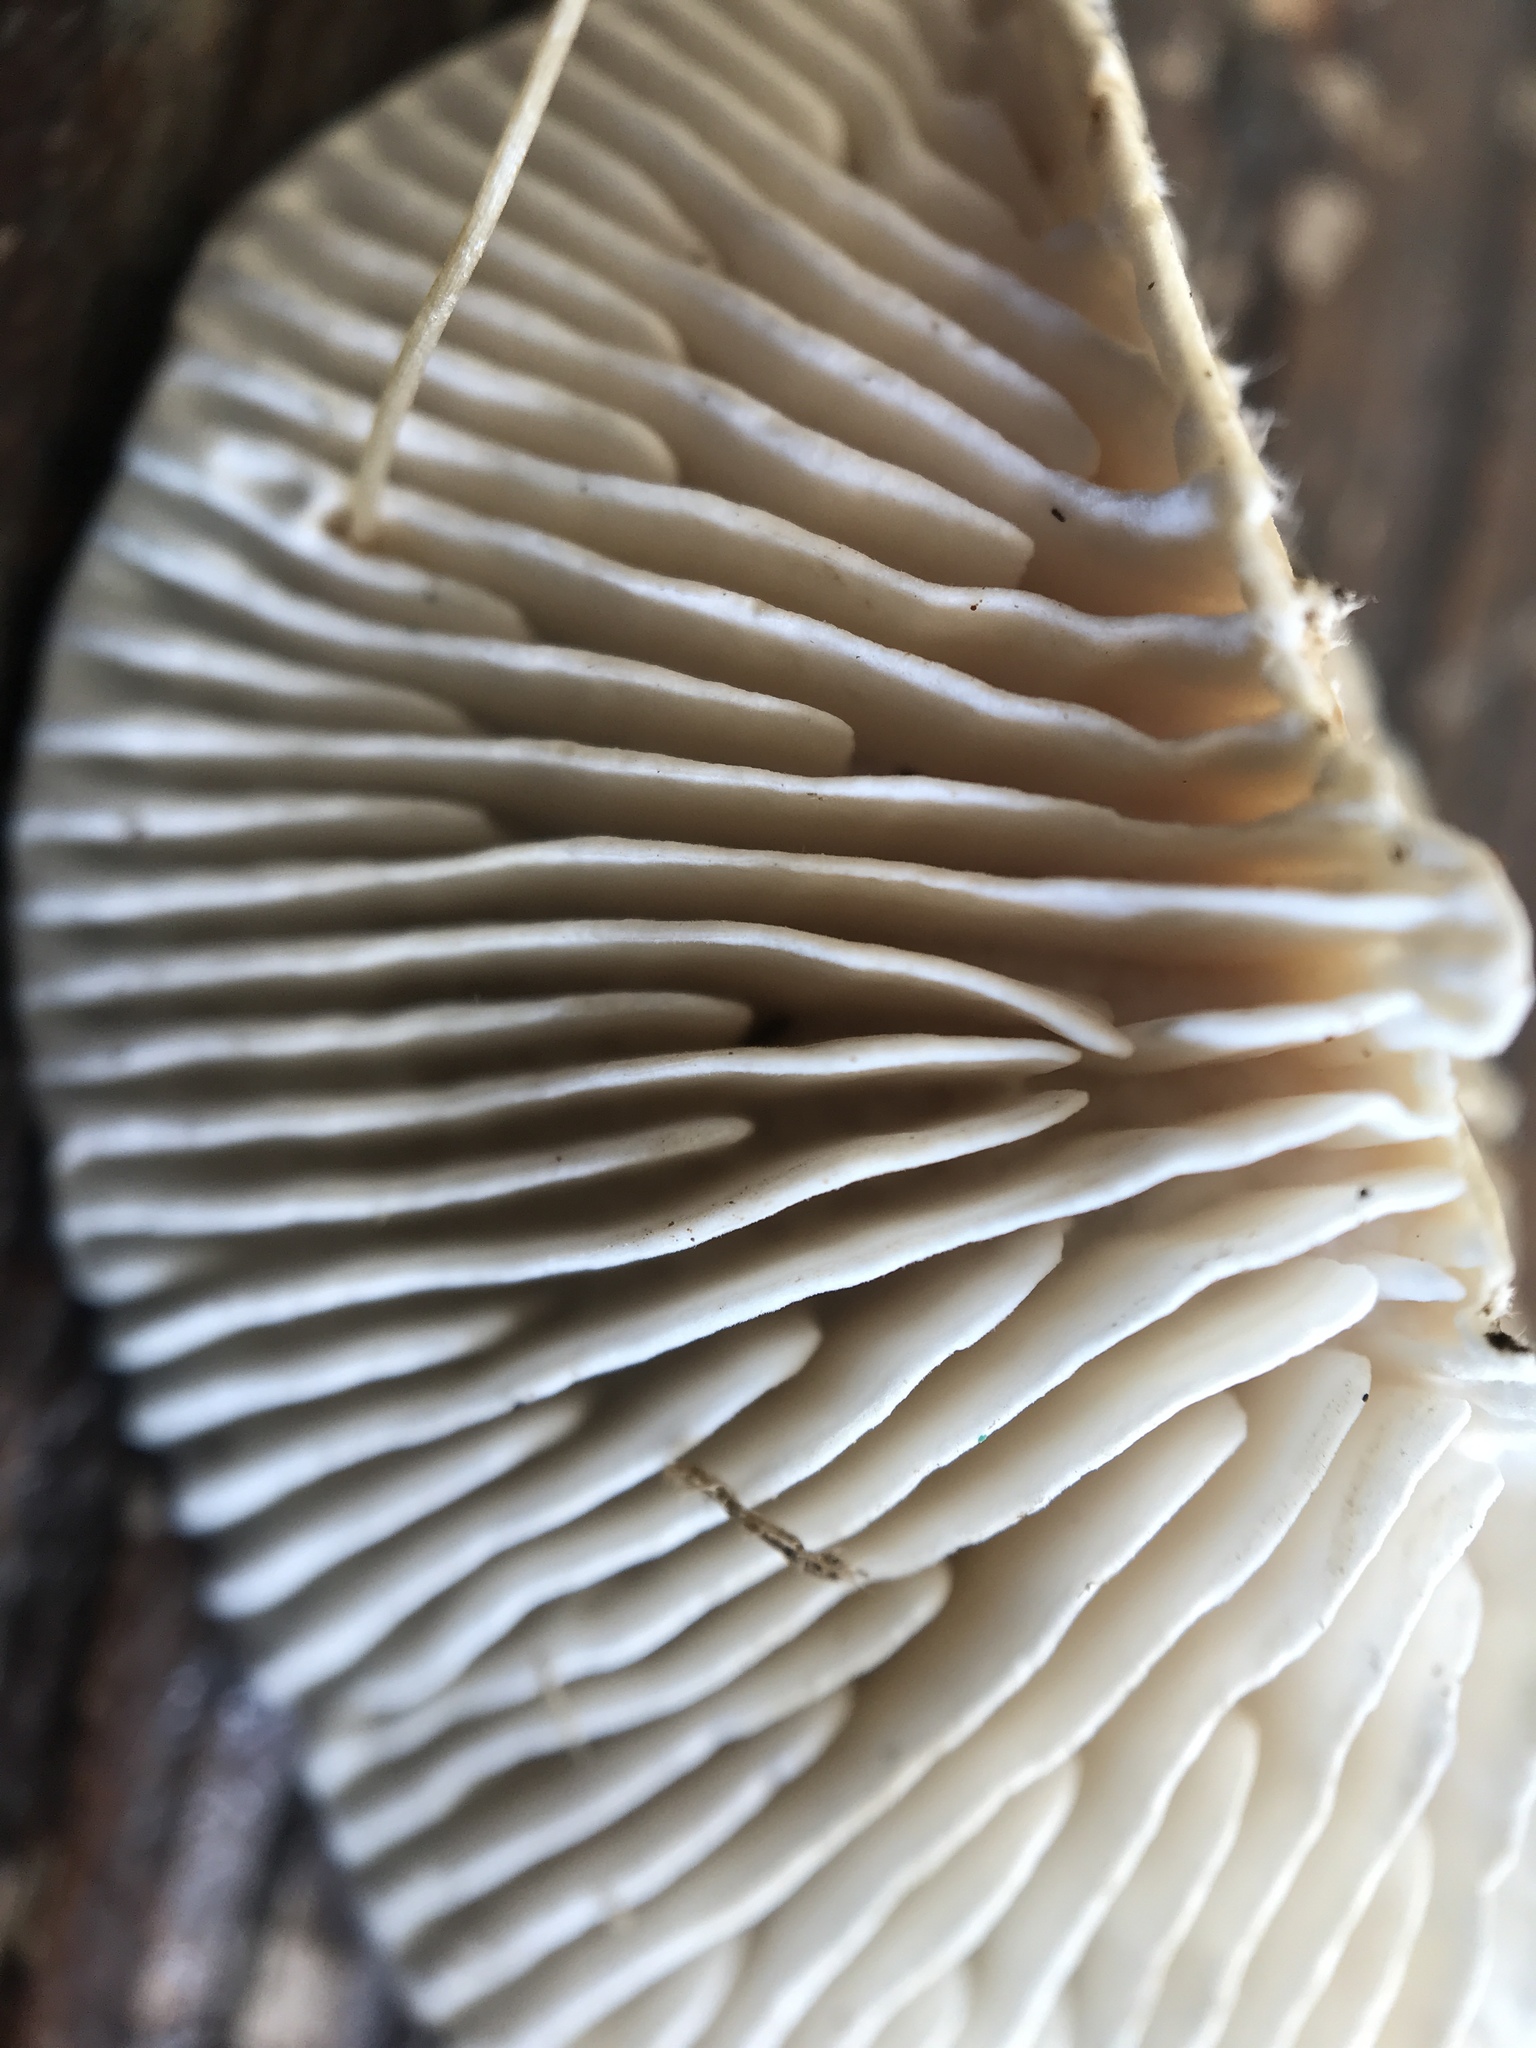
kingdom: Fungi
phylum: Basidiomycota
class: Agaricomycetes
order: Polyporales
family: Polyporaceae
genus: Lenzites
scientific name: Lenzites betulinus
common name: Birch mazegill
